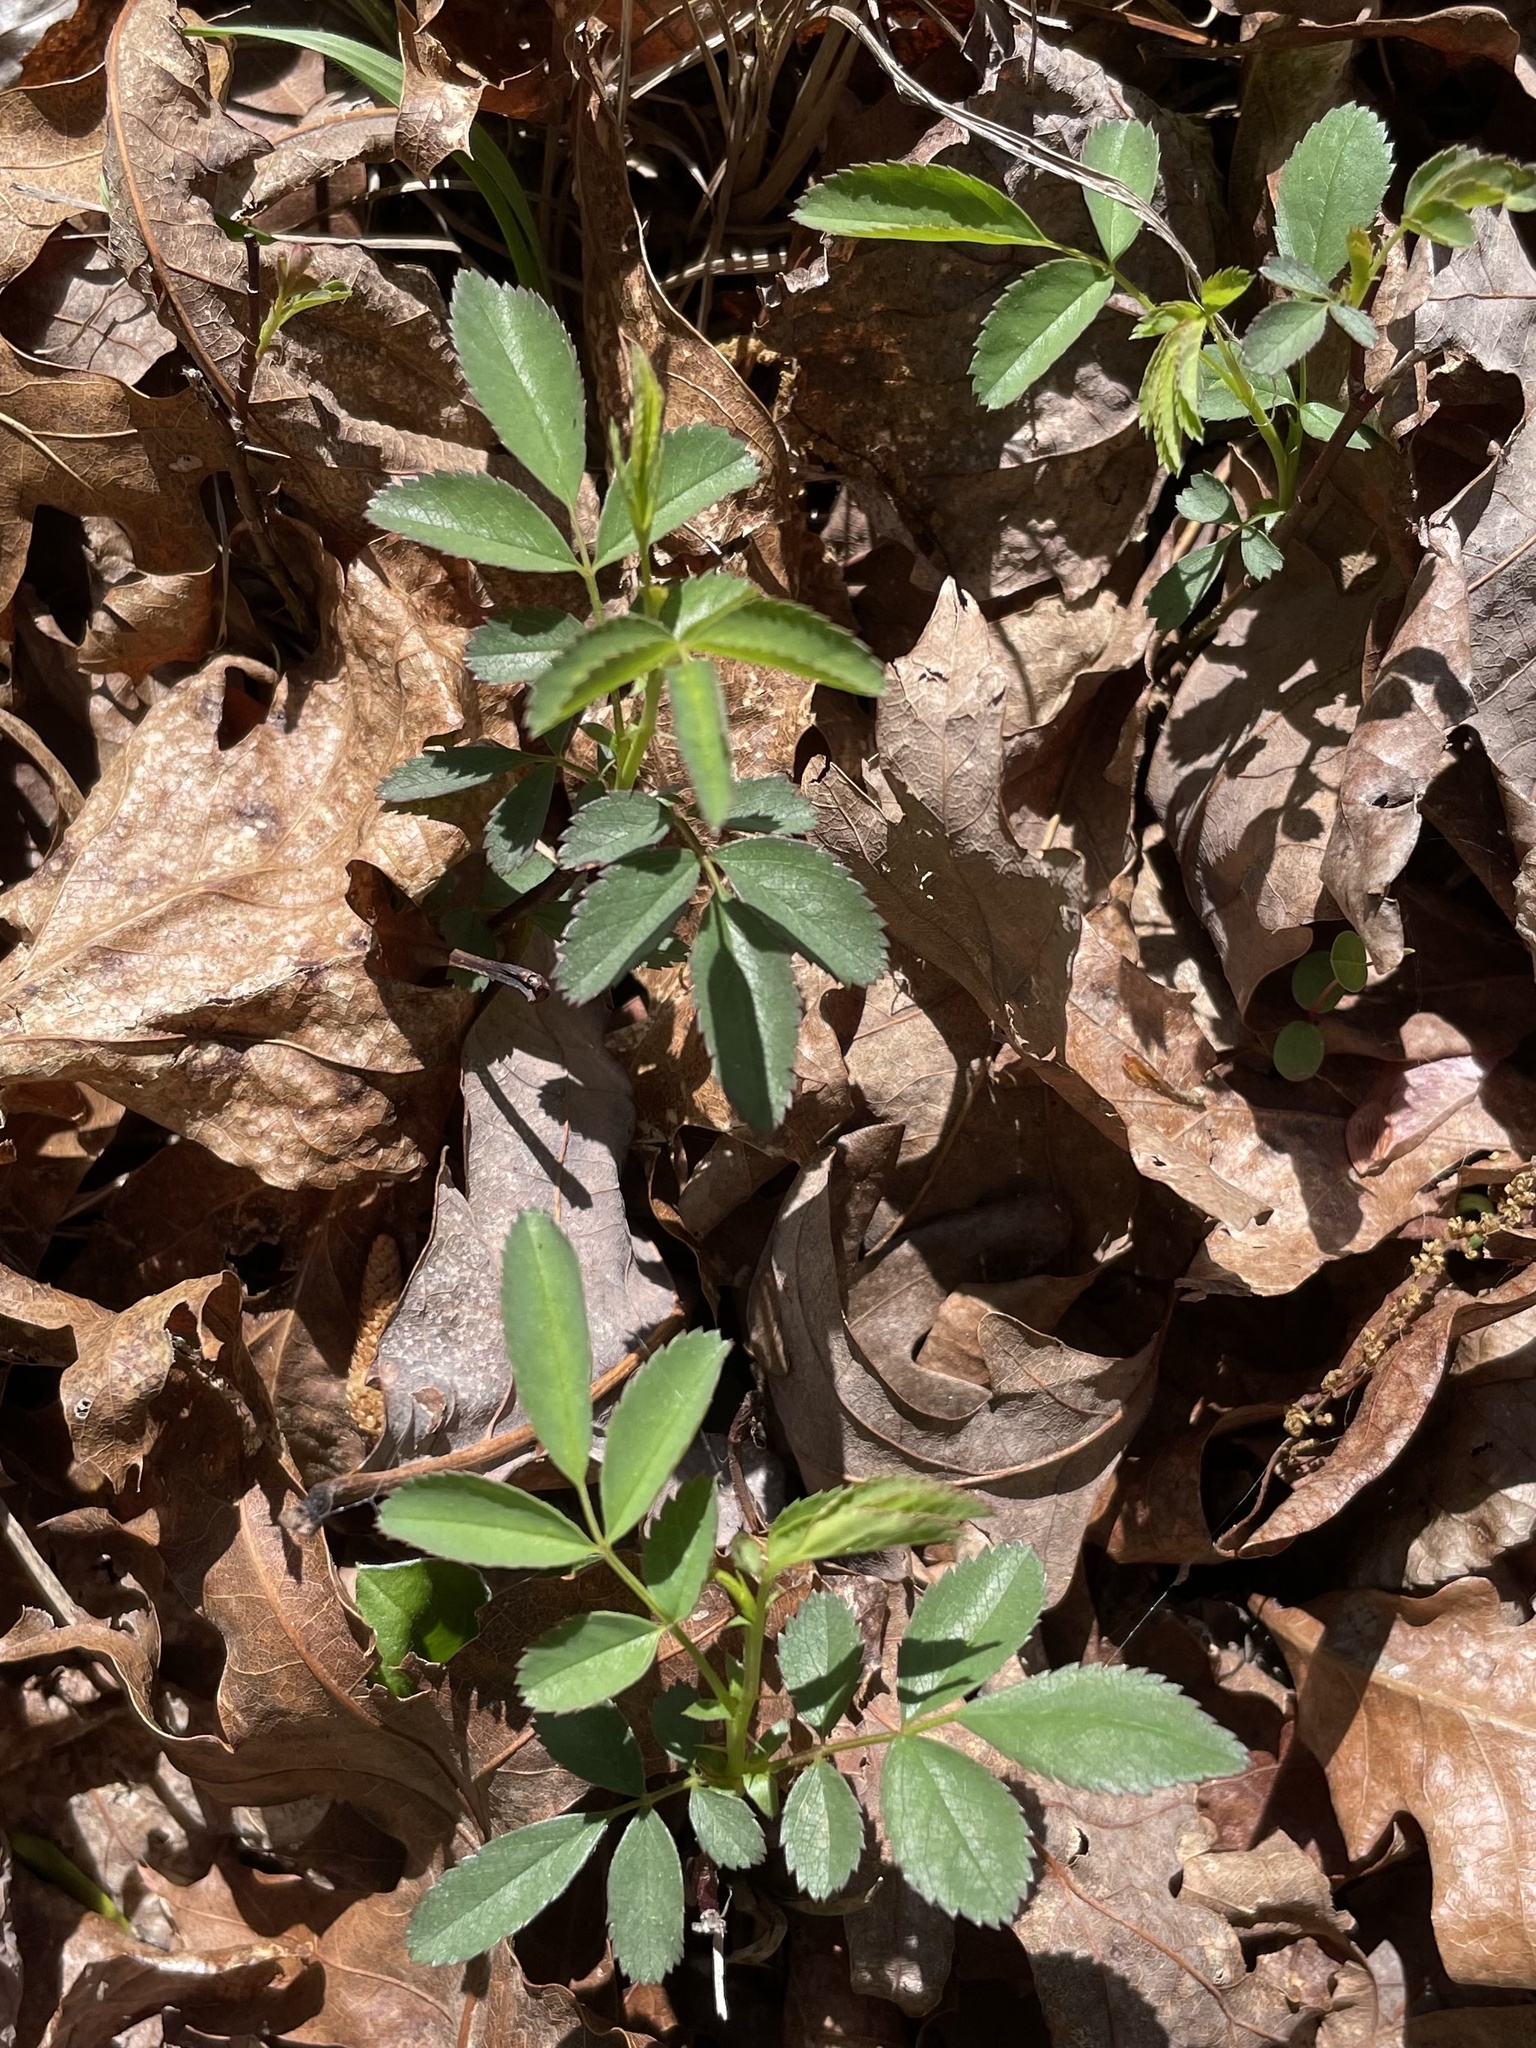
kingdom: Plantae
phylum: Tracheophyta
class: Magnoliopsida
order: Rosales
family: Rosaceae
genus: Rosa
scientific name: Rosa carolina
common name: Pasture rose
